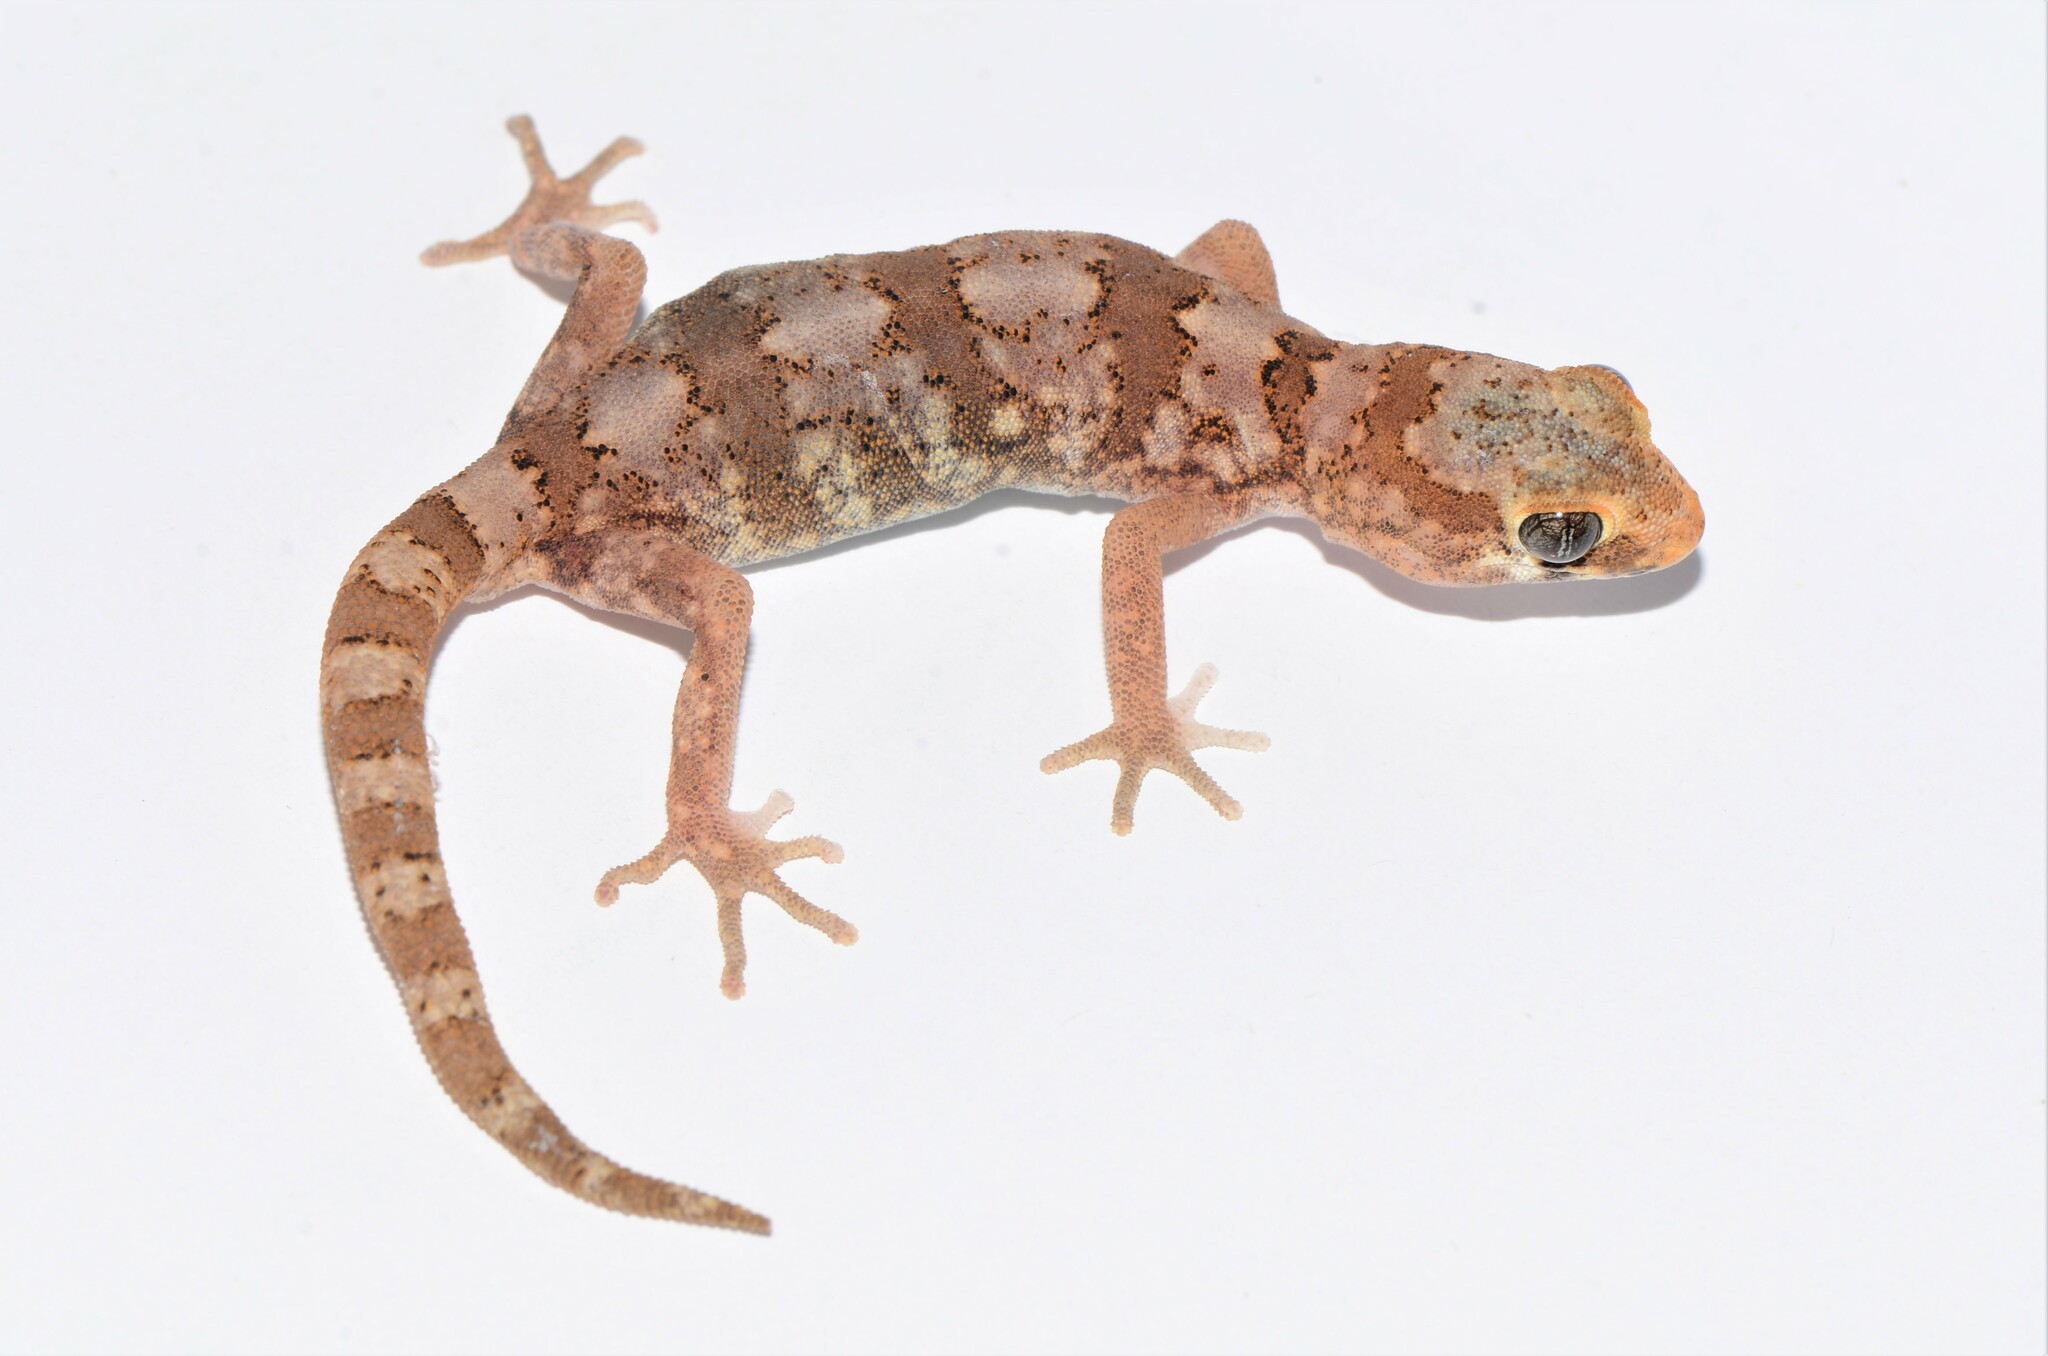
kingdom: Animalia
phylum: Chordata
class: Squamata
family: Gekkonidae
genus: Pachydactylus
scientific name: Pachydactylus latirostris
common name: Quartz gecko
